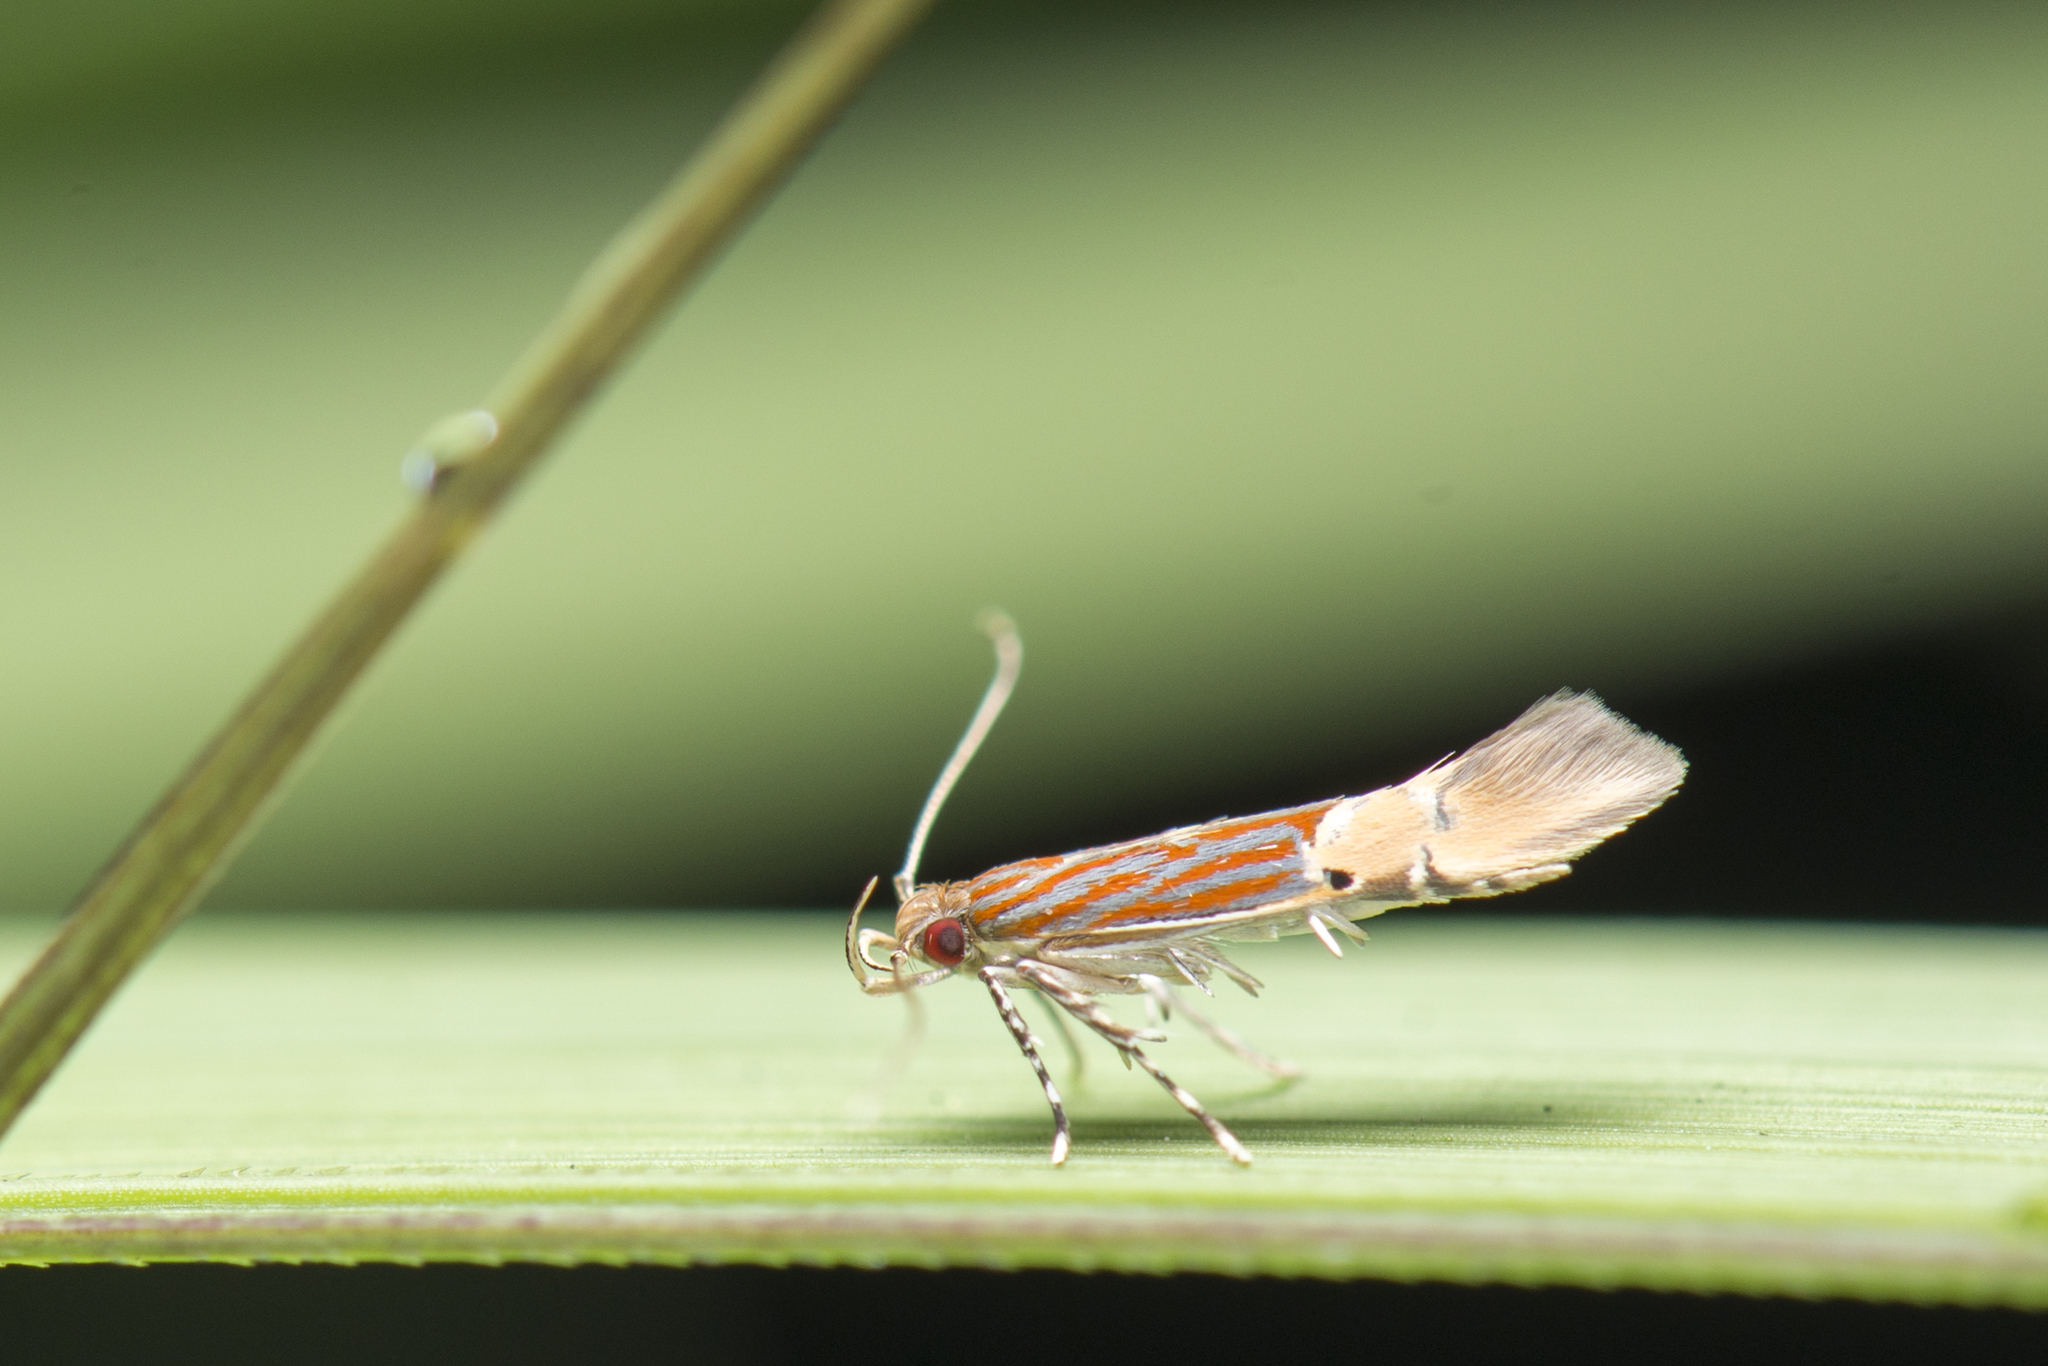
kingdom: Animalia
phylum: Arthropoda
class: Insecta
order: Lepidoptera
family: Cosmopterigidae
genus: Labdia
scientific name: Labdia semicoccinea
